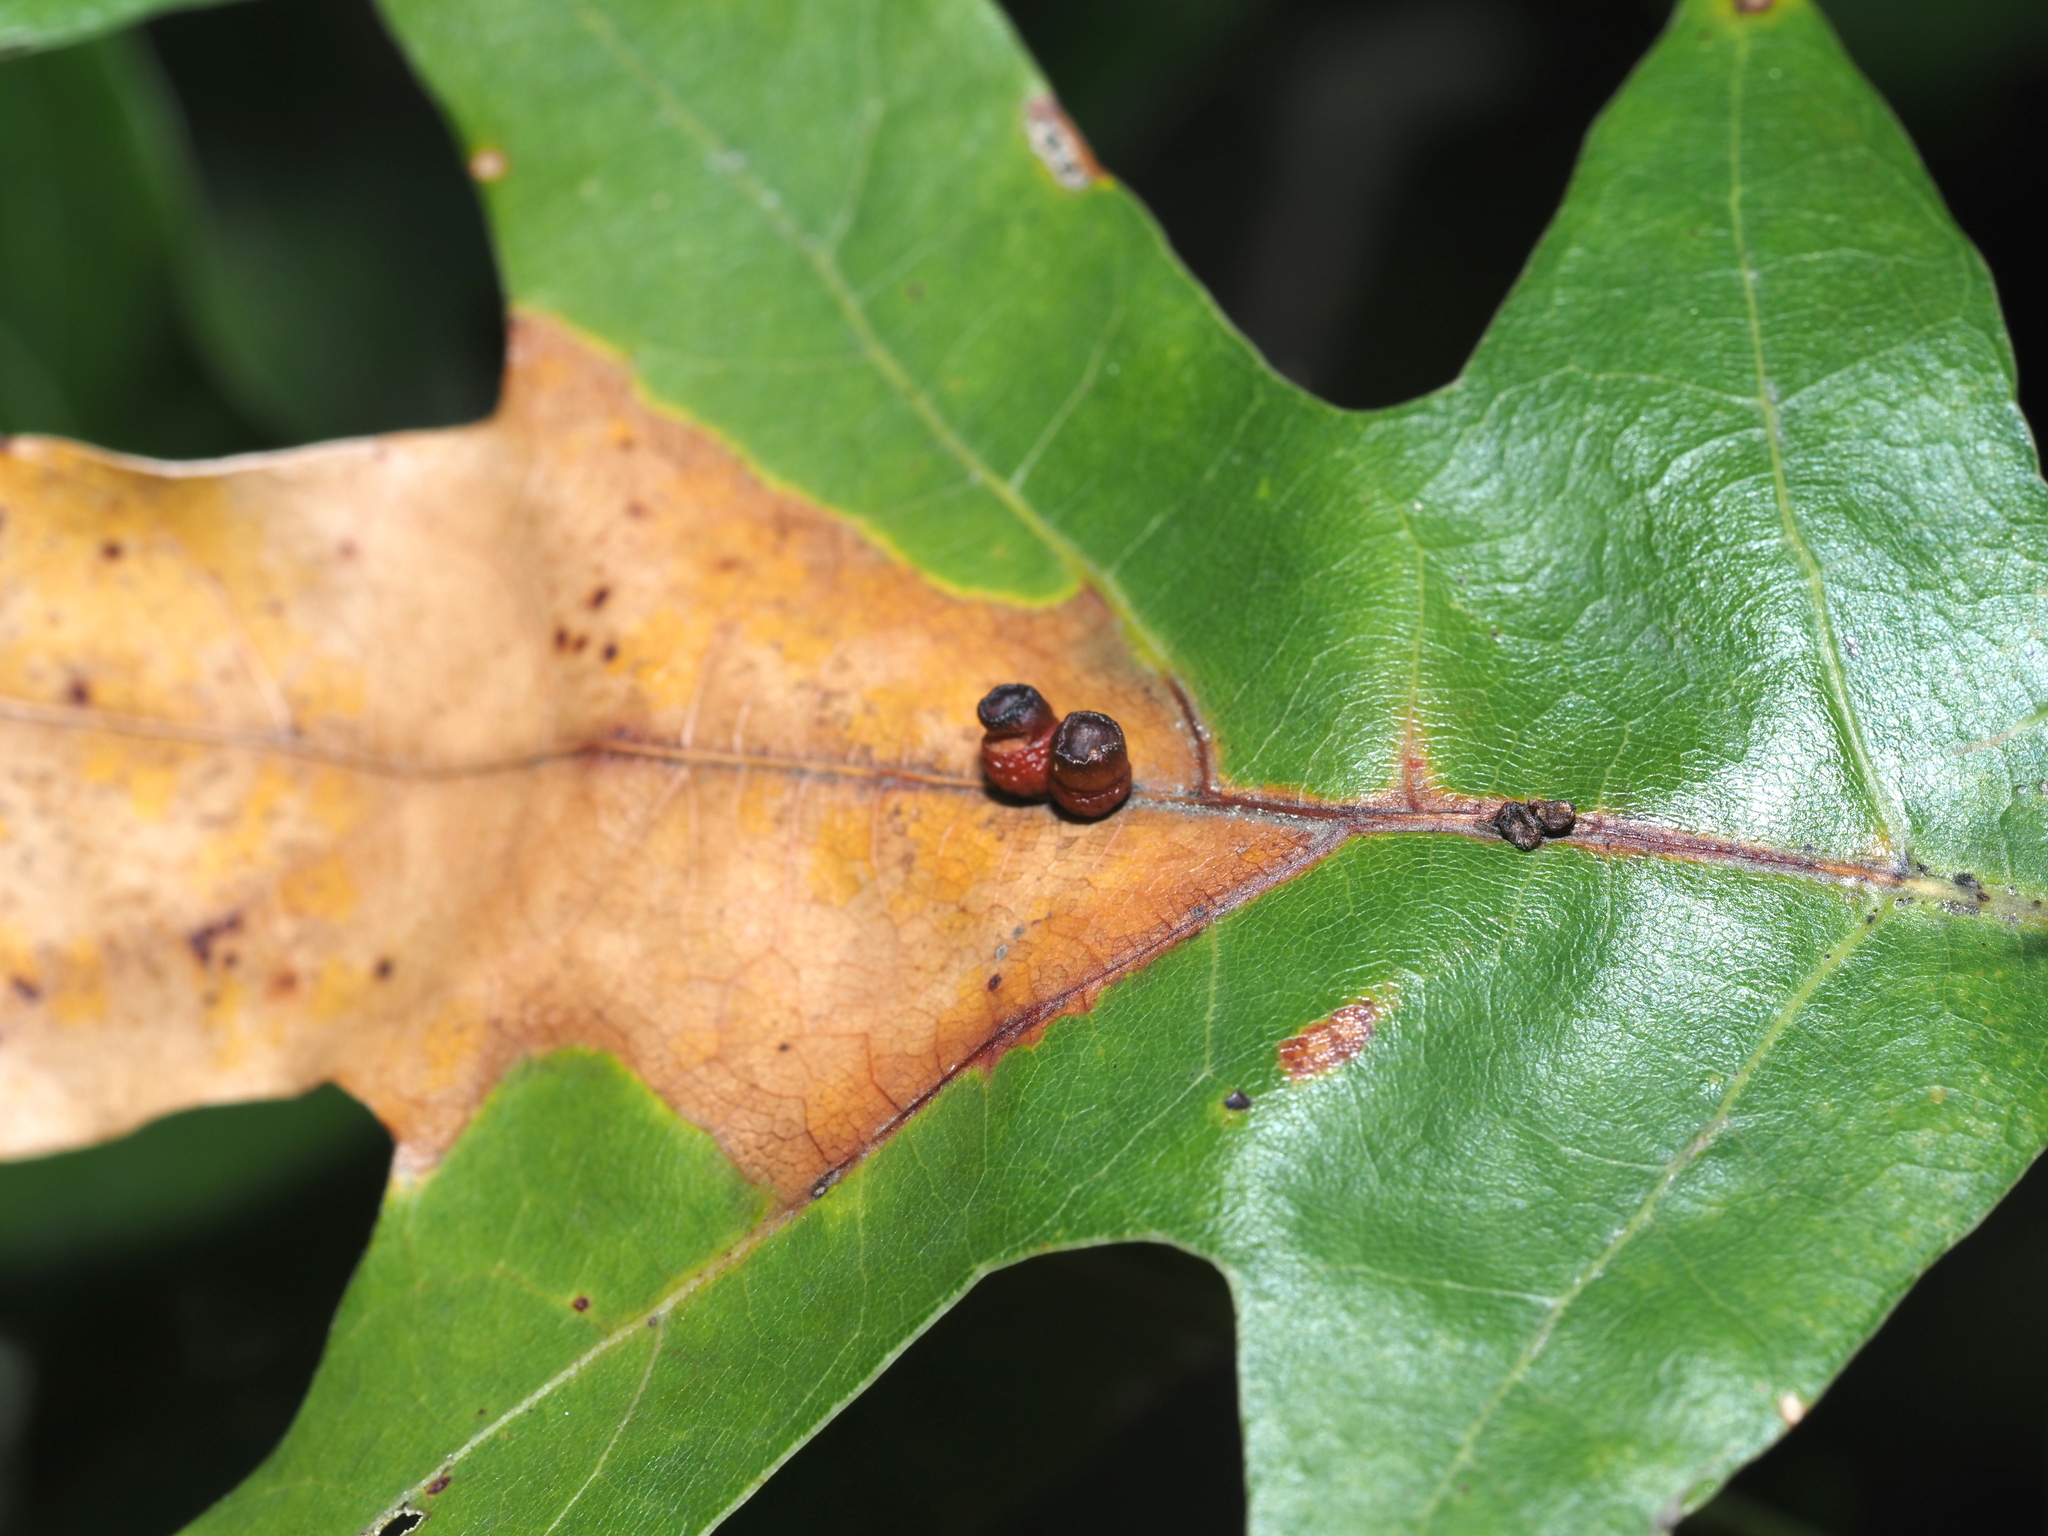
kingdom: Animalia
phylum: Arthropoda
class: Insecta
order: Hymenoptera
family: Cynipidae
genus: Kokkocynips
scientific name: Kokkocynips rileyi
